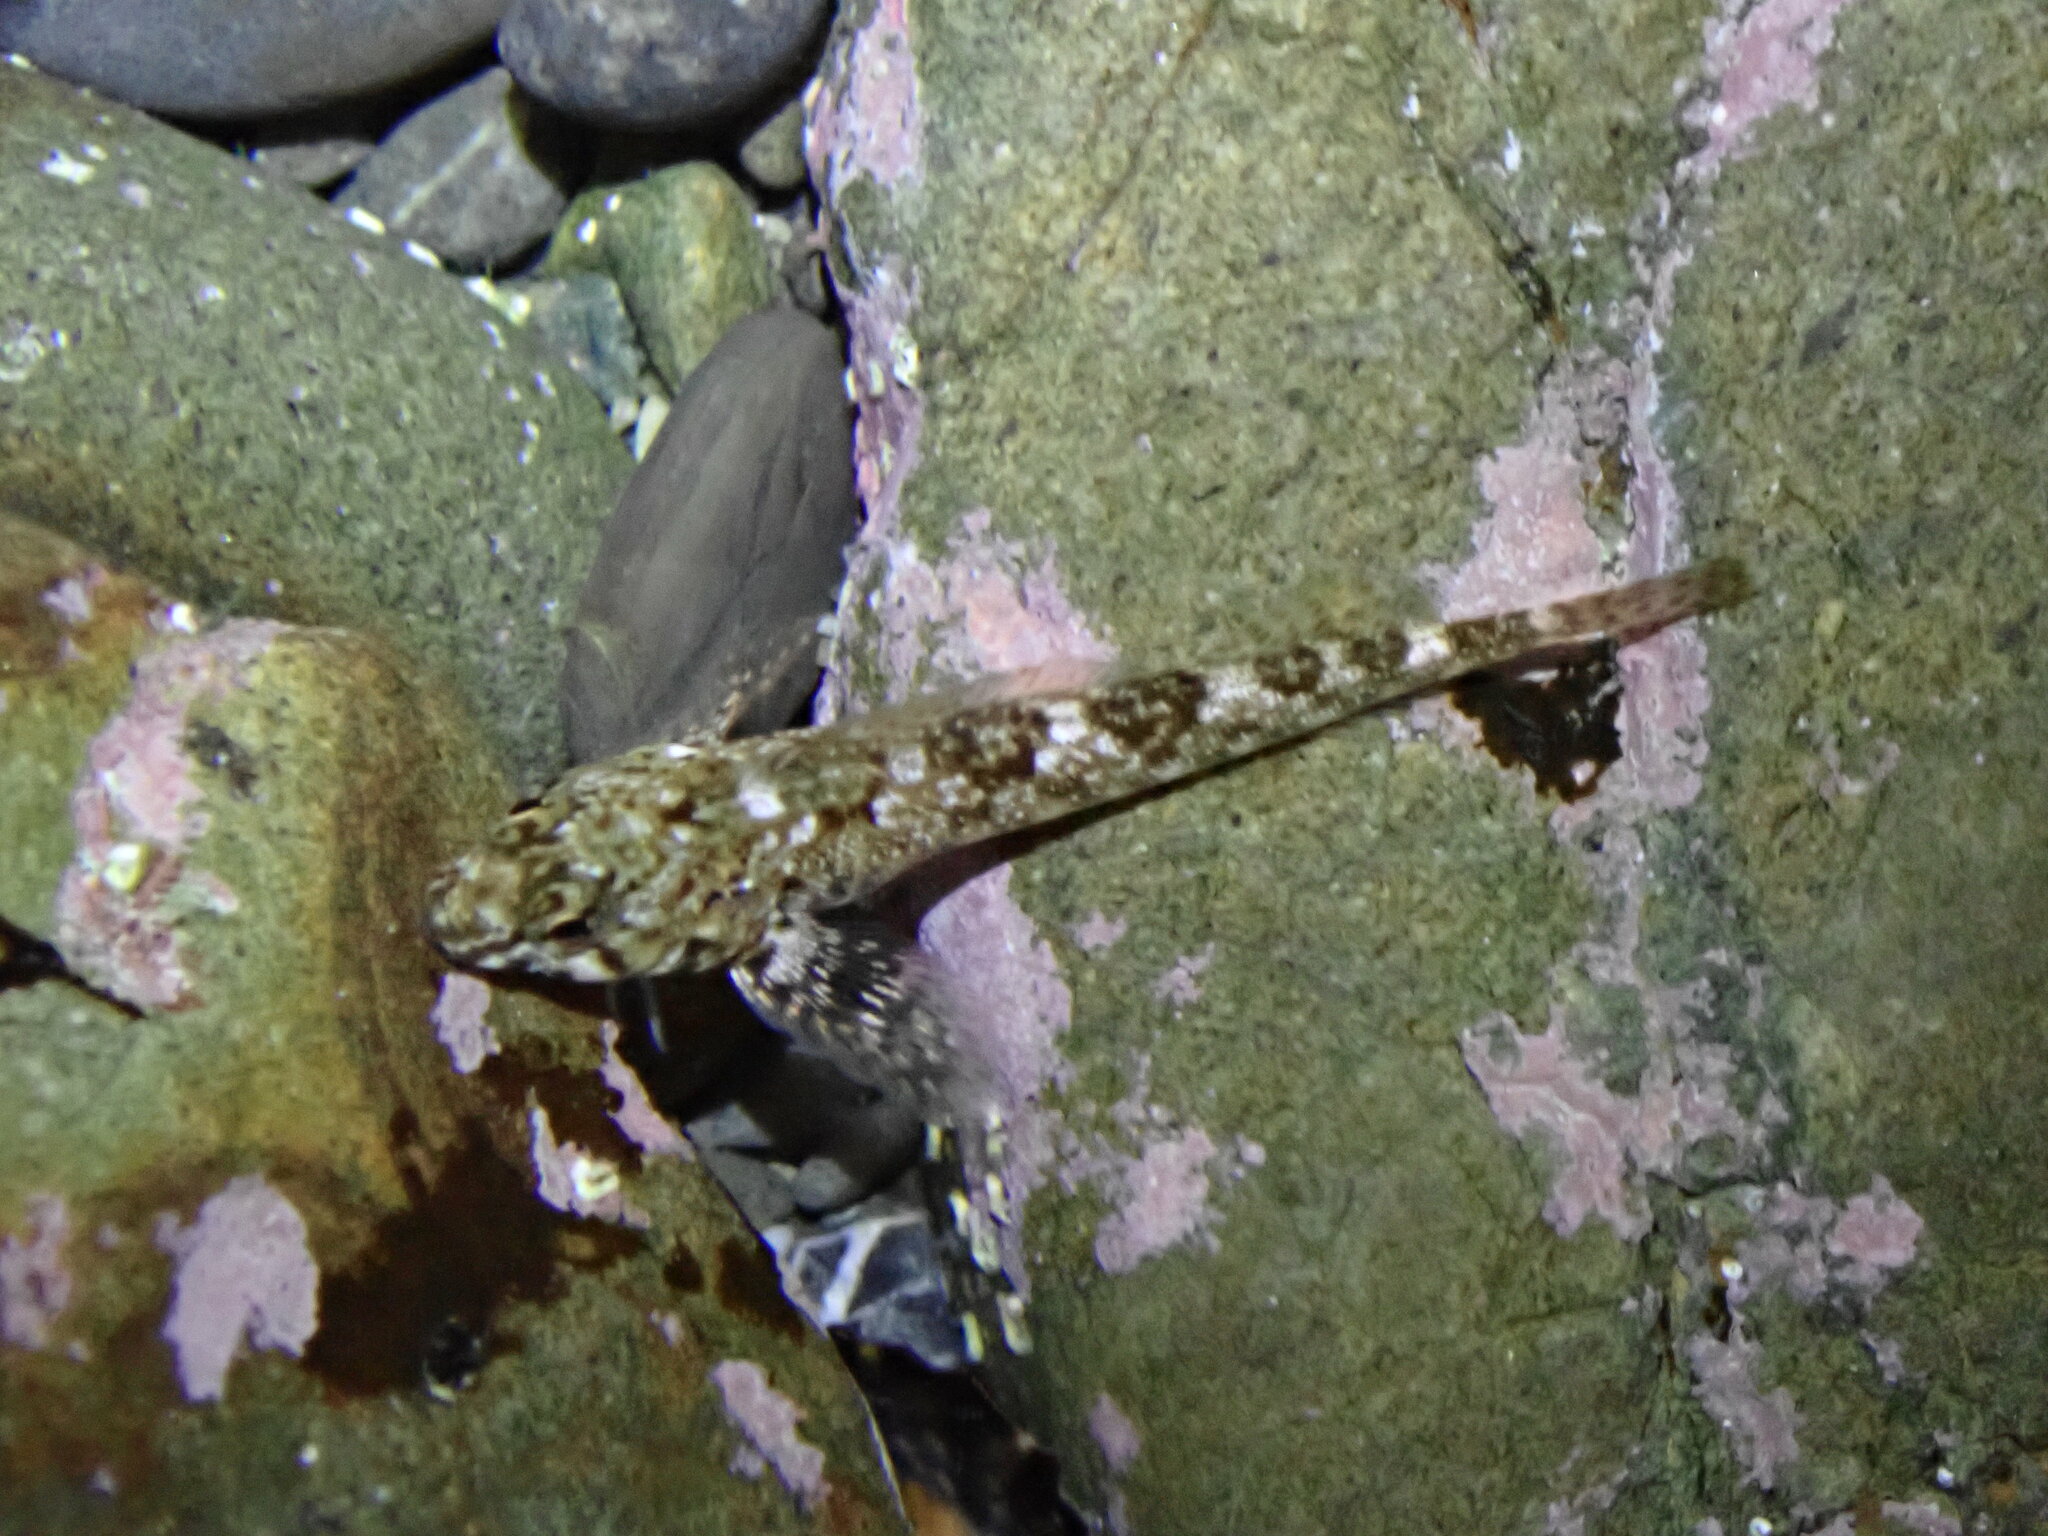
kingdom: Animalia
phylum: Chordata
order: Perciformes
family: Tripterygiidae
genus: Bellapiscis
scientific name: Bellapiscis medius
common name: Twister
